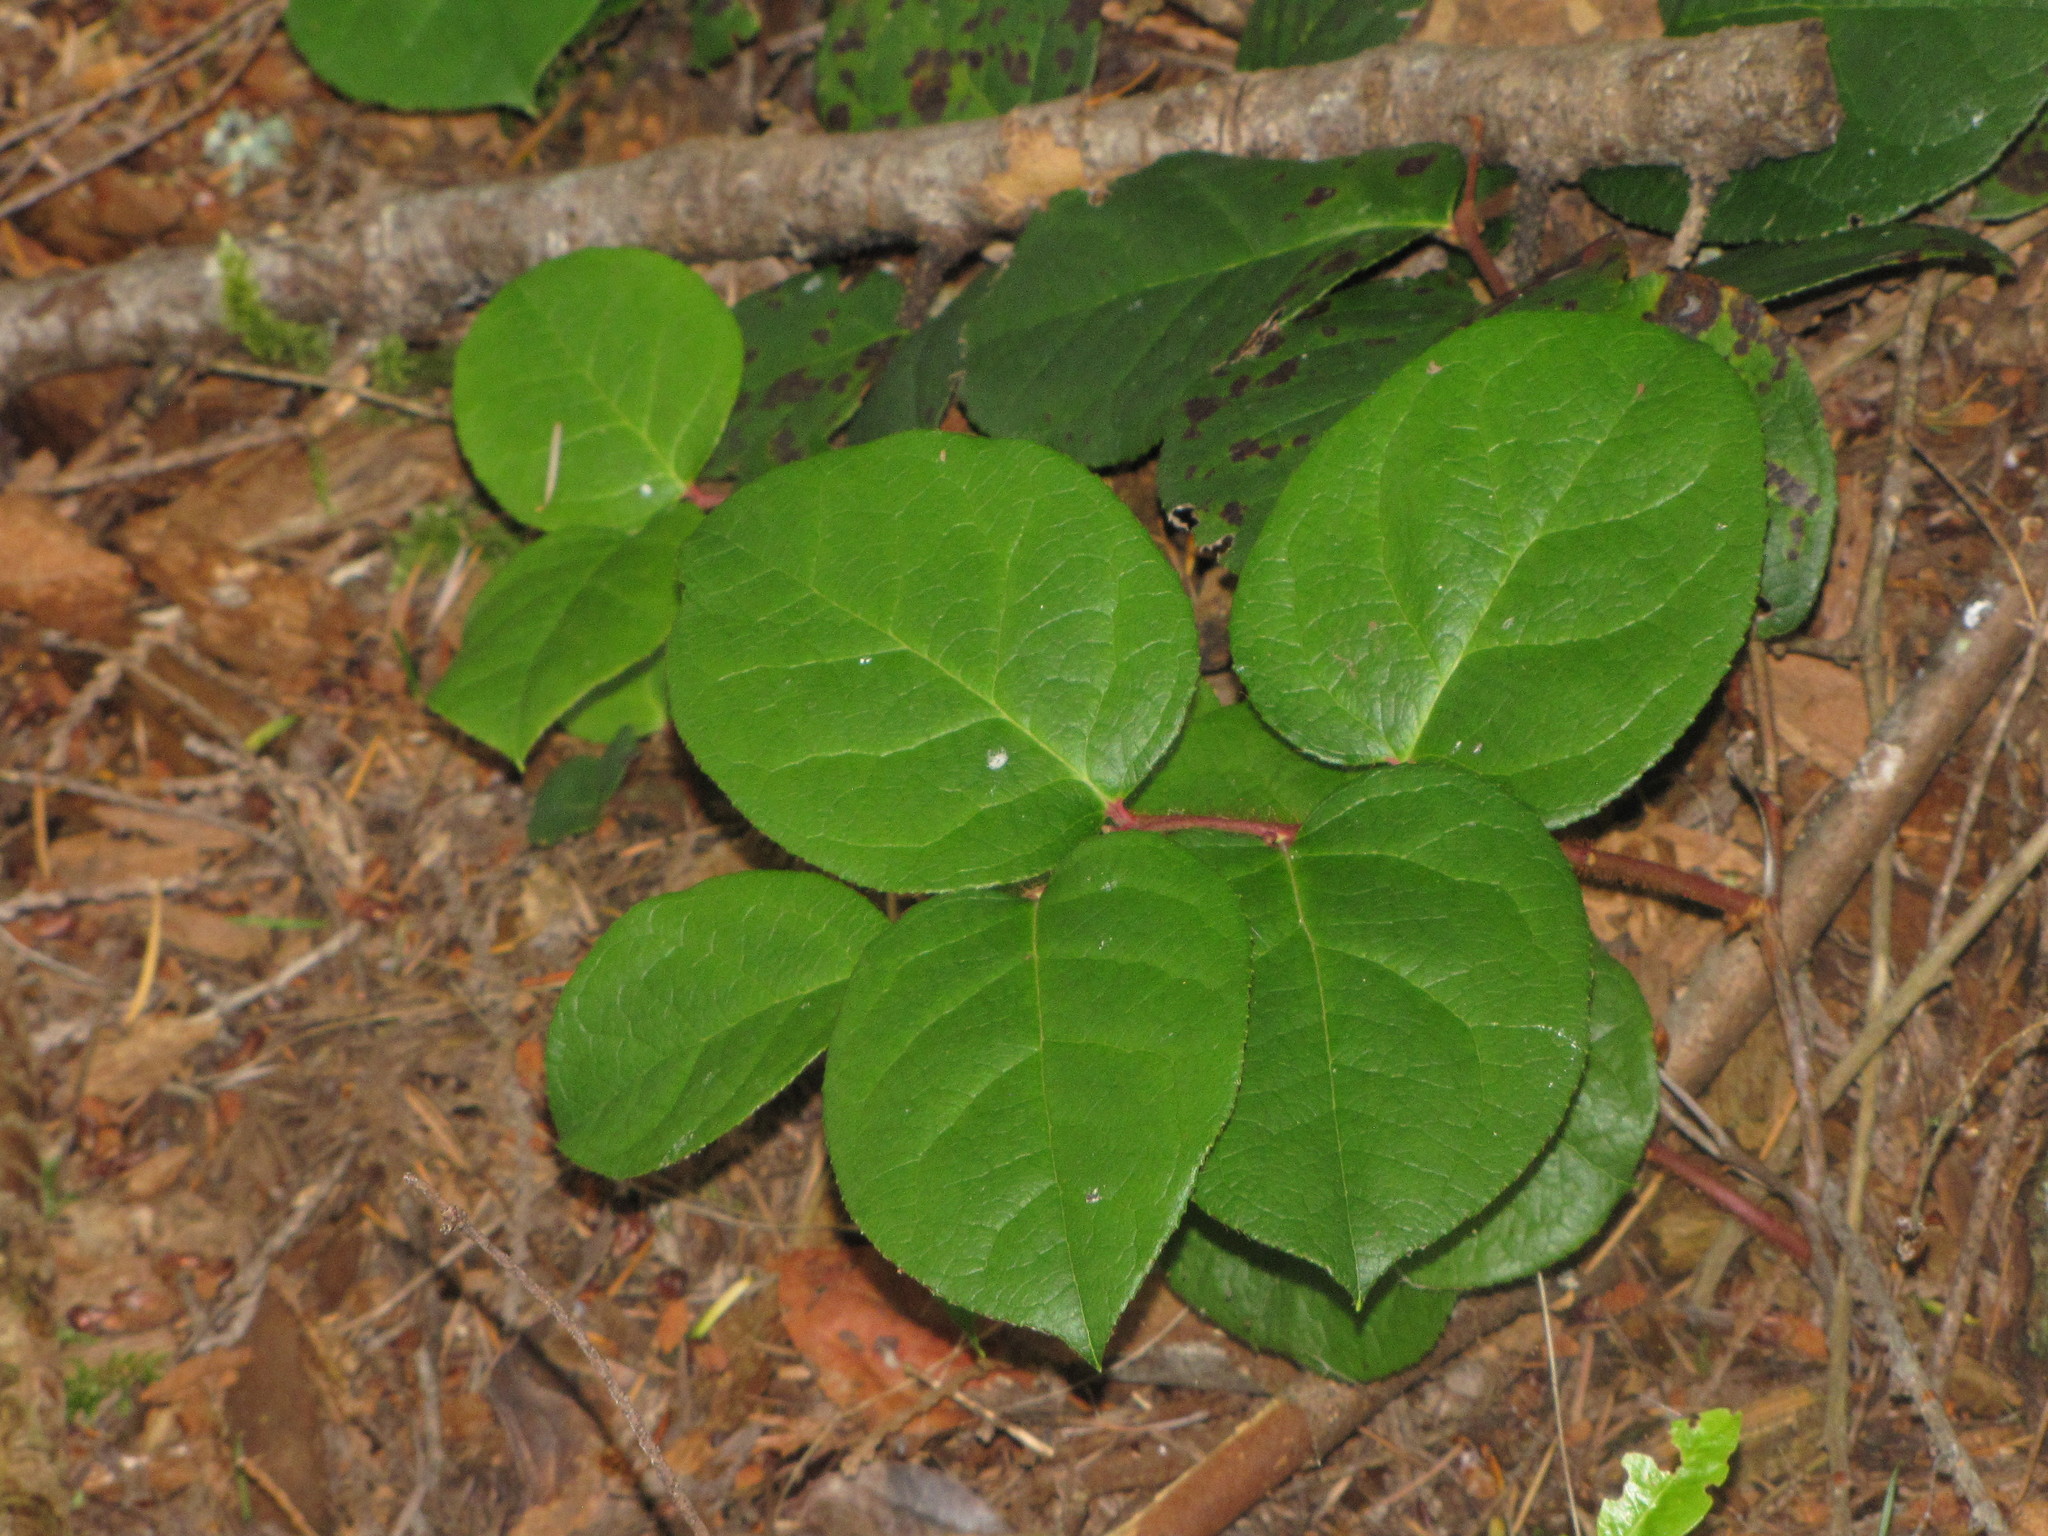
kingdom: Plantae
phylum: Tracheophyta
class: Magnoliopsida
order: Ericales
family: Ericaceae
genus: Gaultheria
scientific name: Gaultheria shallon
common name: Shallon
